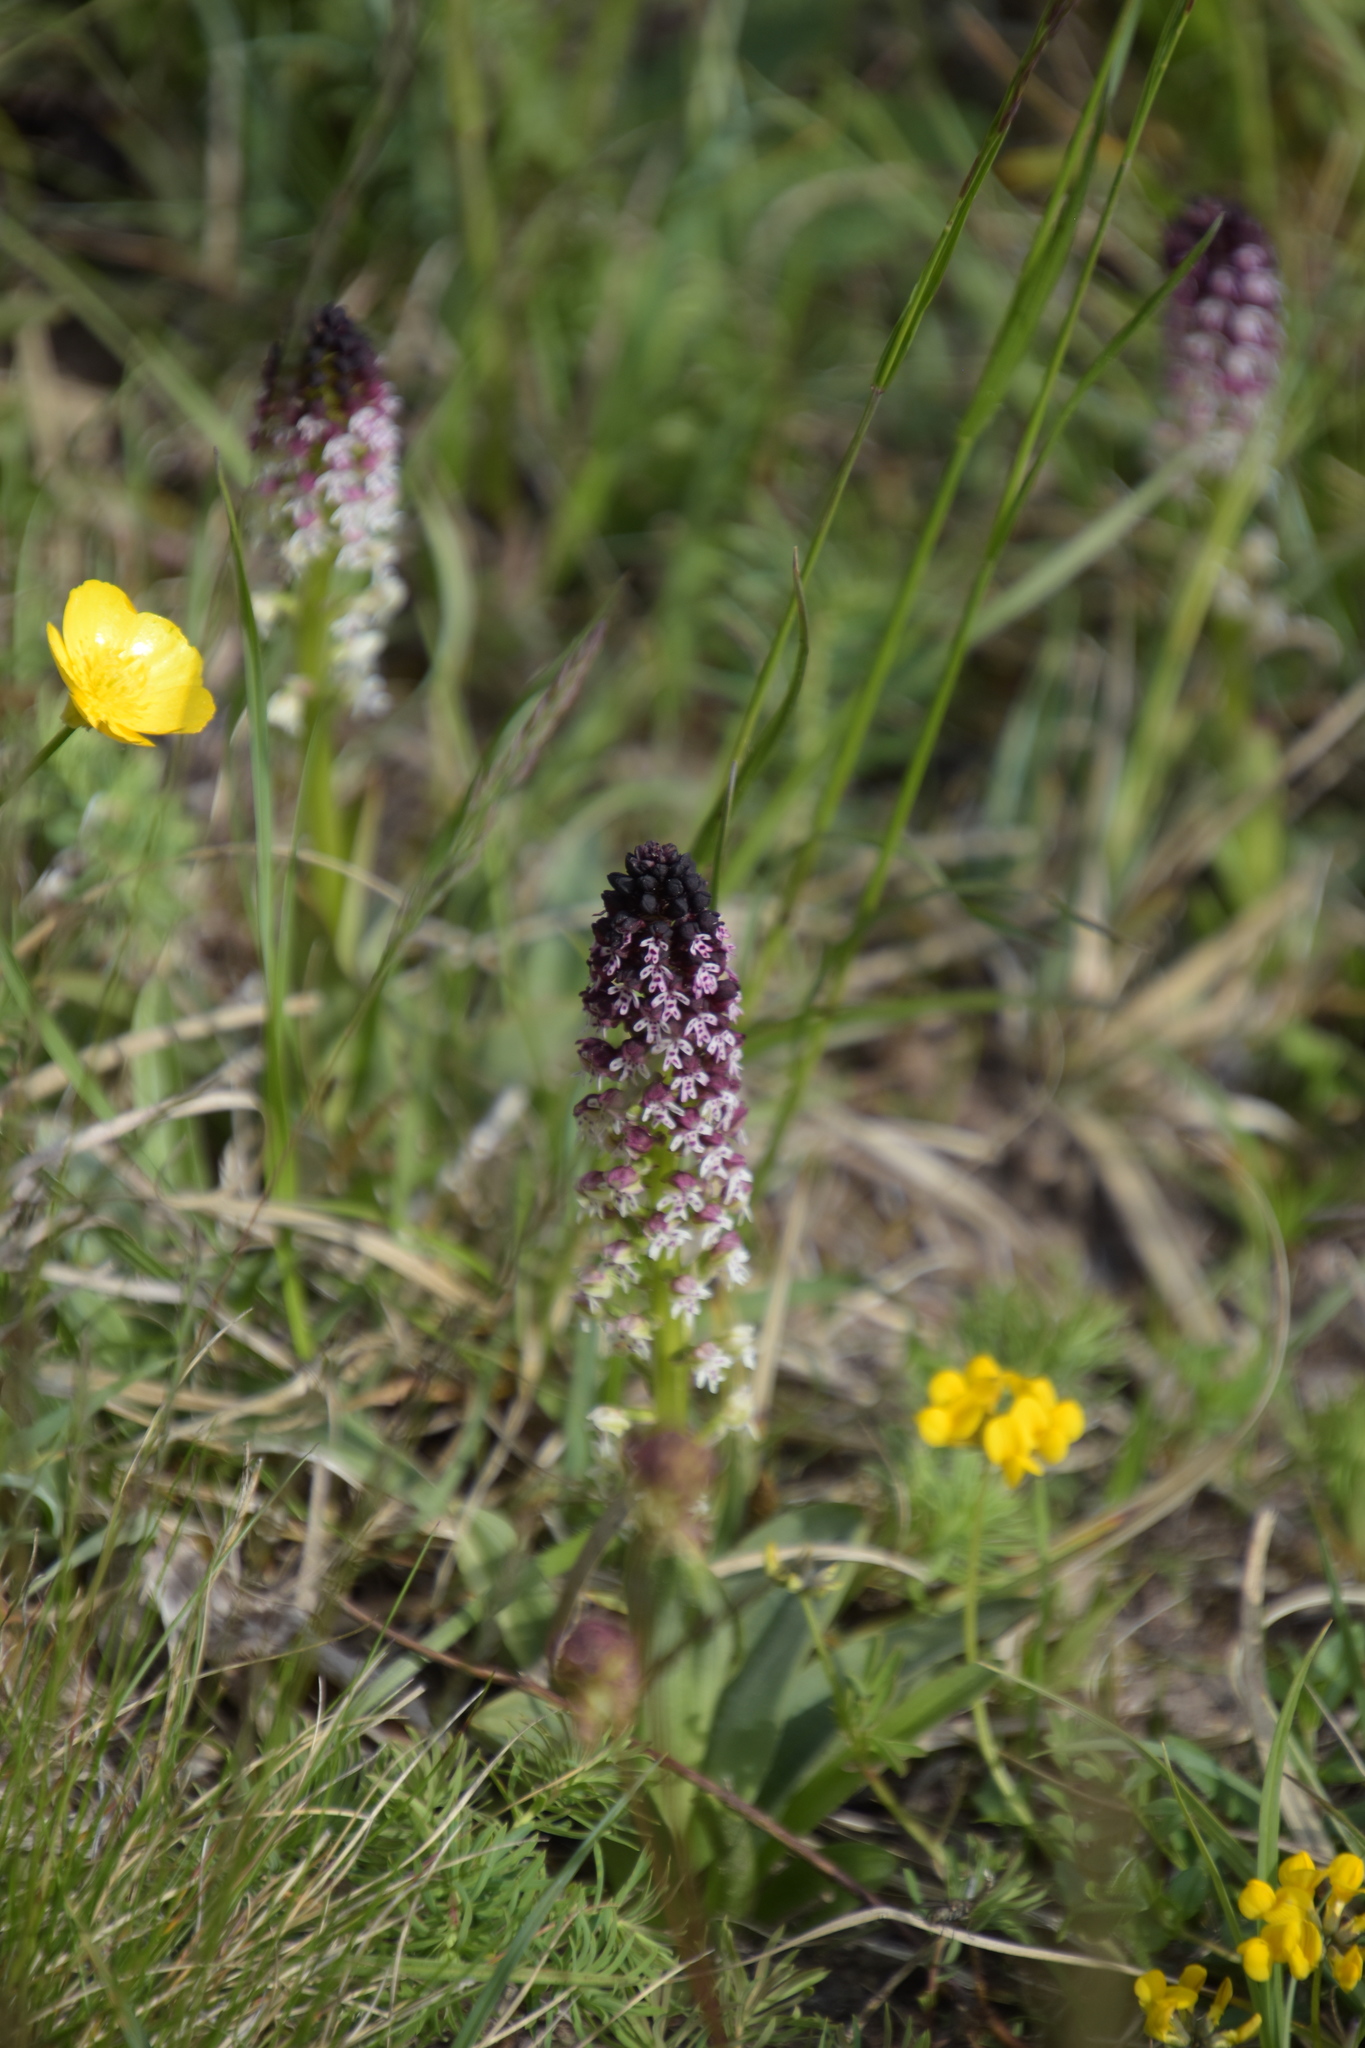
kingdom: Plantae
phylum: Tracheophyta
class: Liliopsida
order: Asparagales
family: Orchidaceae
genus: Neotinea
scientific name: Neotinea ustulata
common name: Burnt orchid
